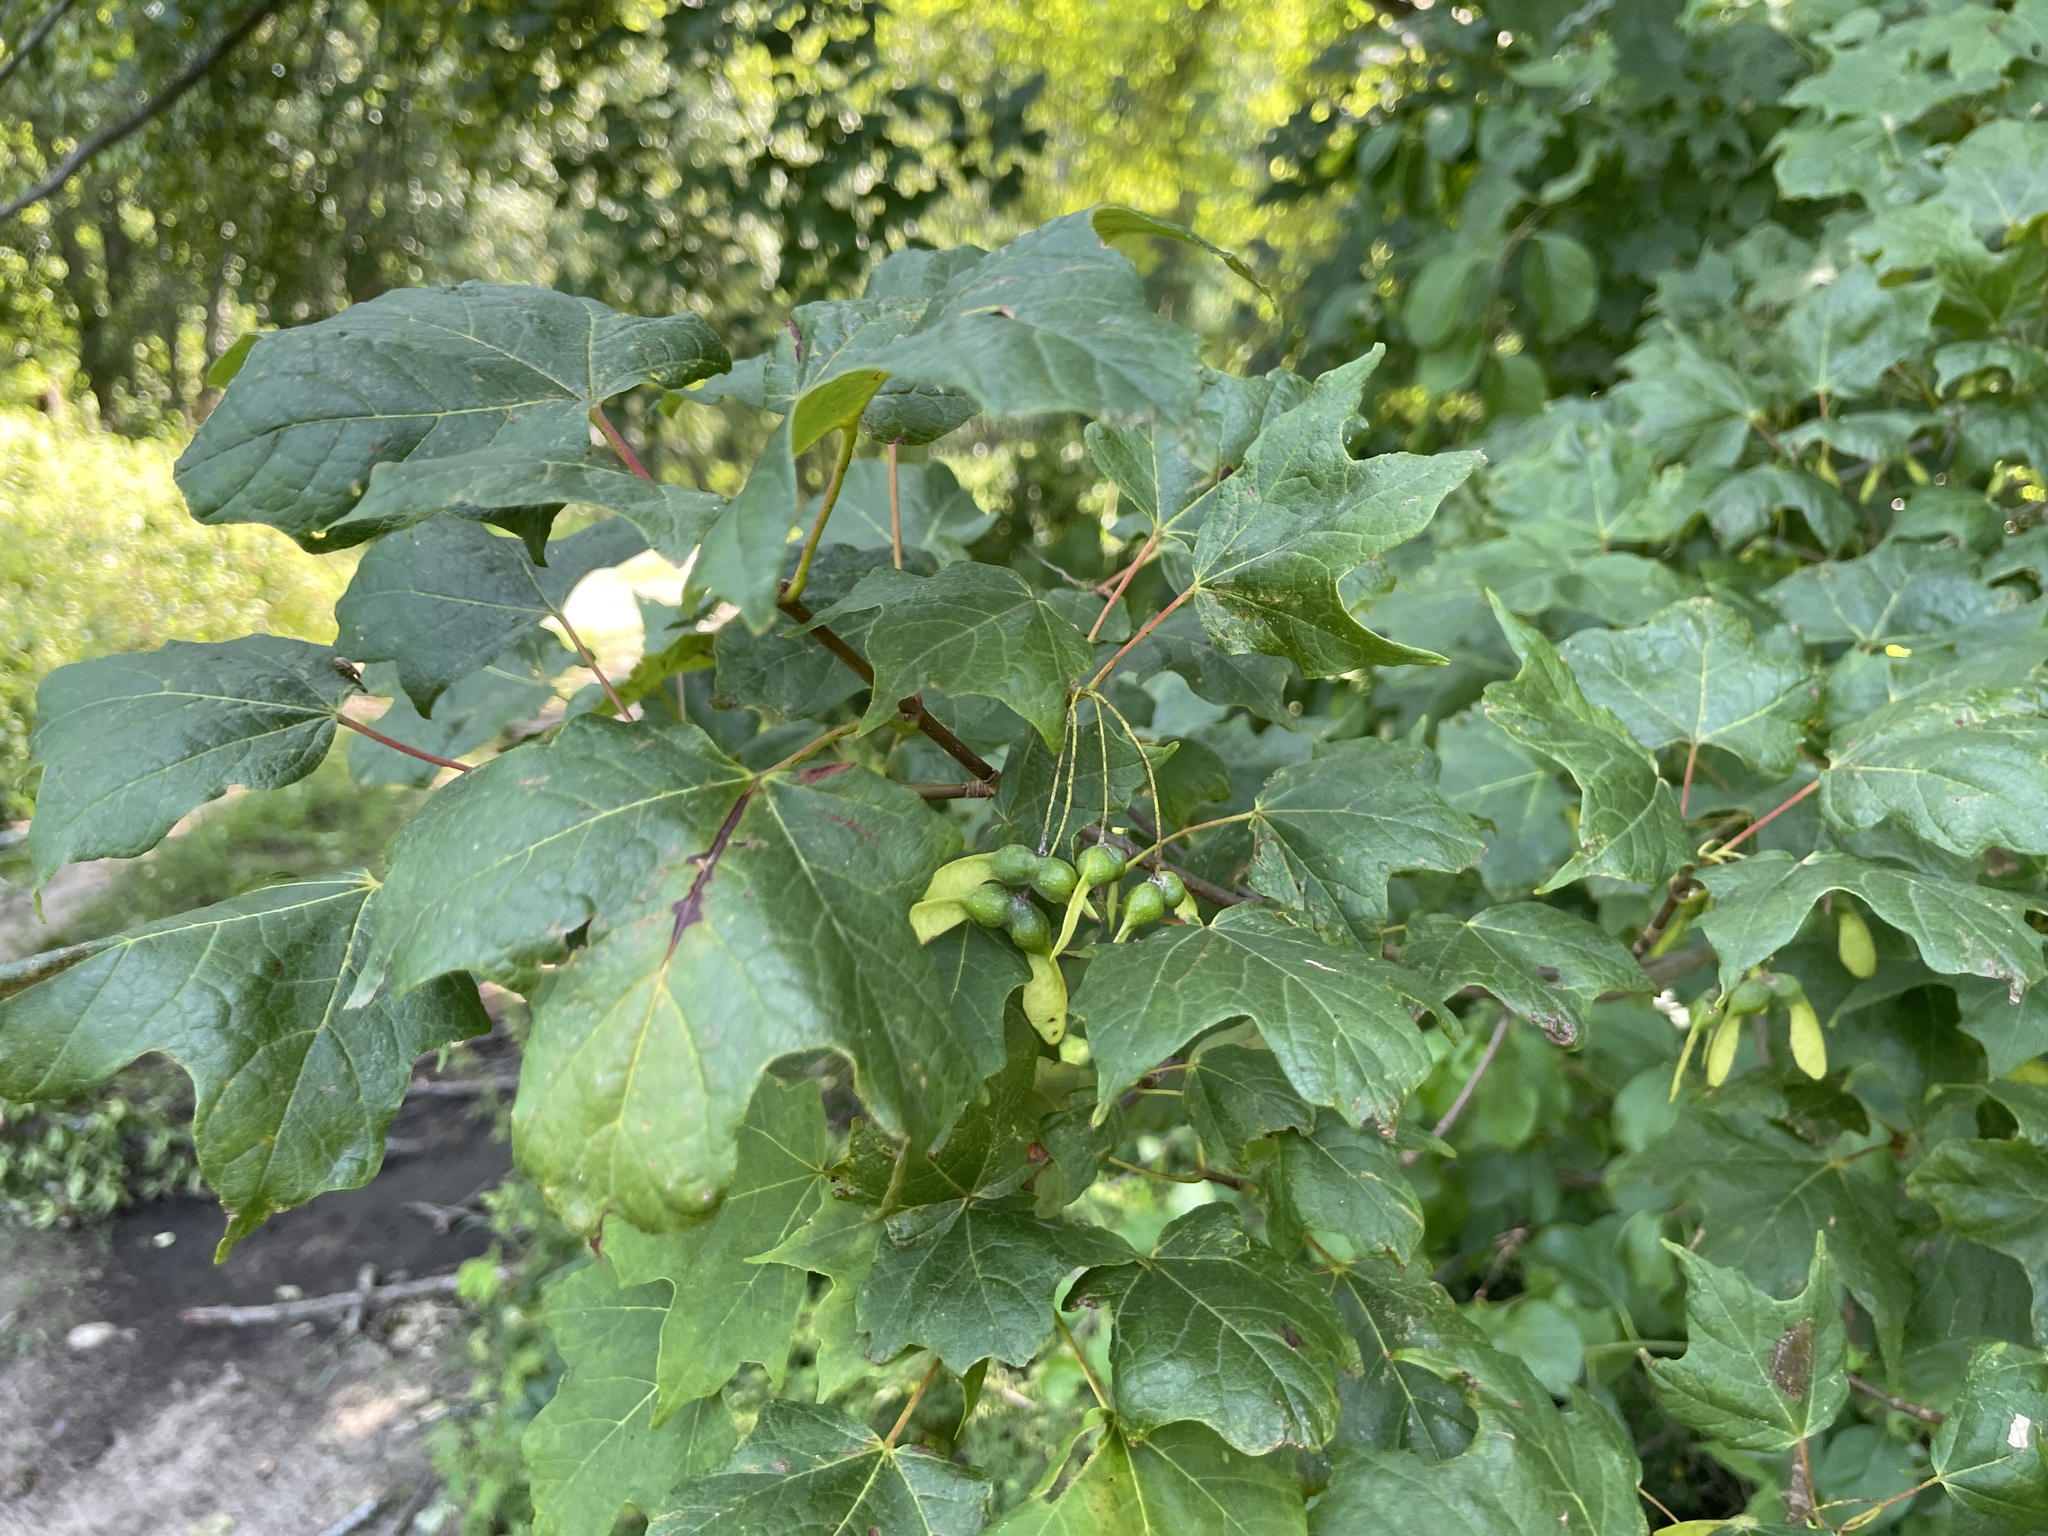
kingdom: Plantae
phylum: Tracheophyta
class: Magnoliopsida
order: Sapindales
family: Sapindaceae
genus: Acer
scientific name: Acer nigrum
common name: Black maple
